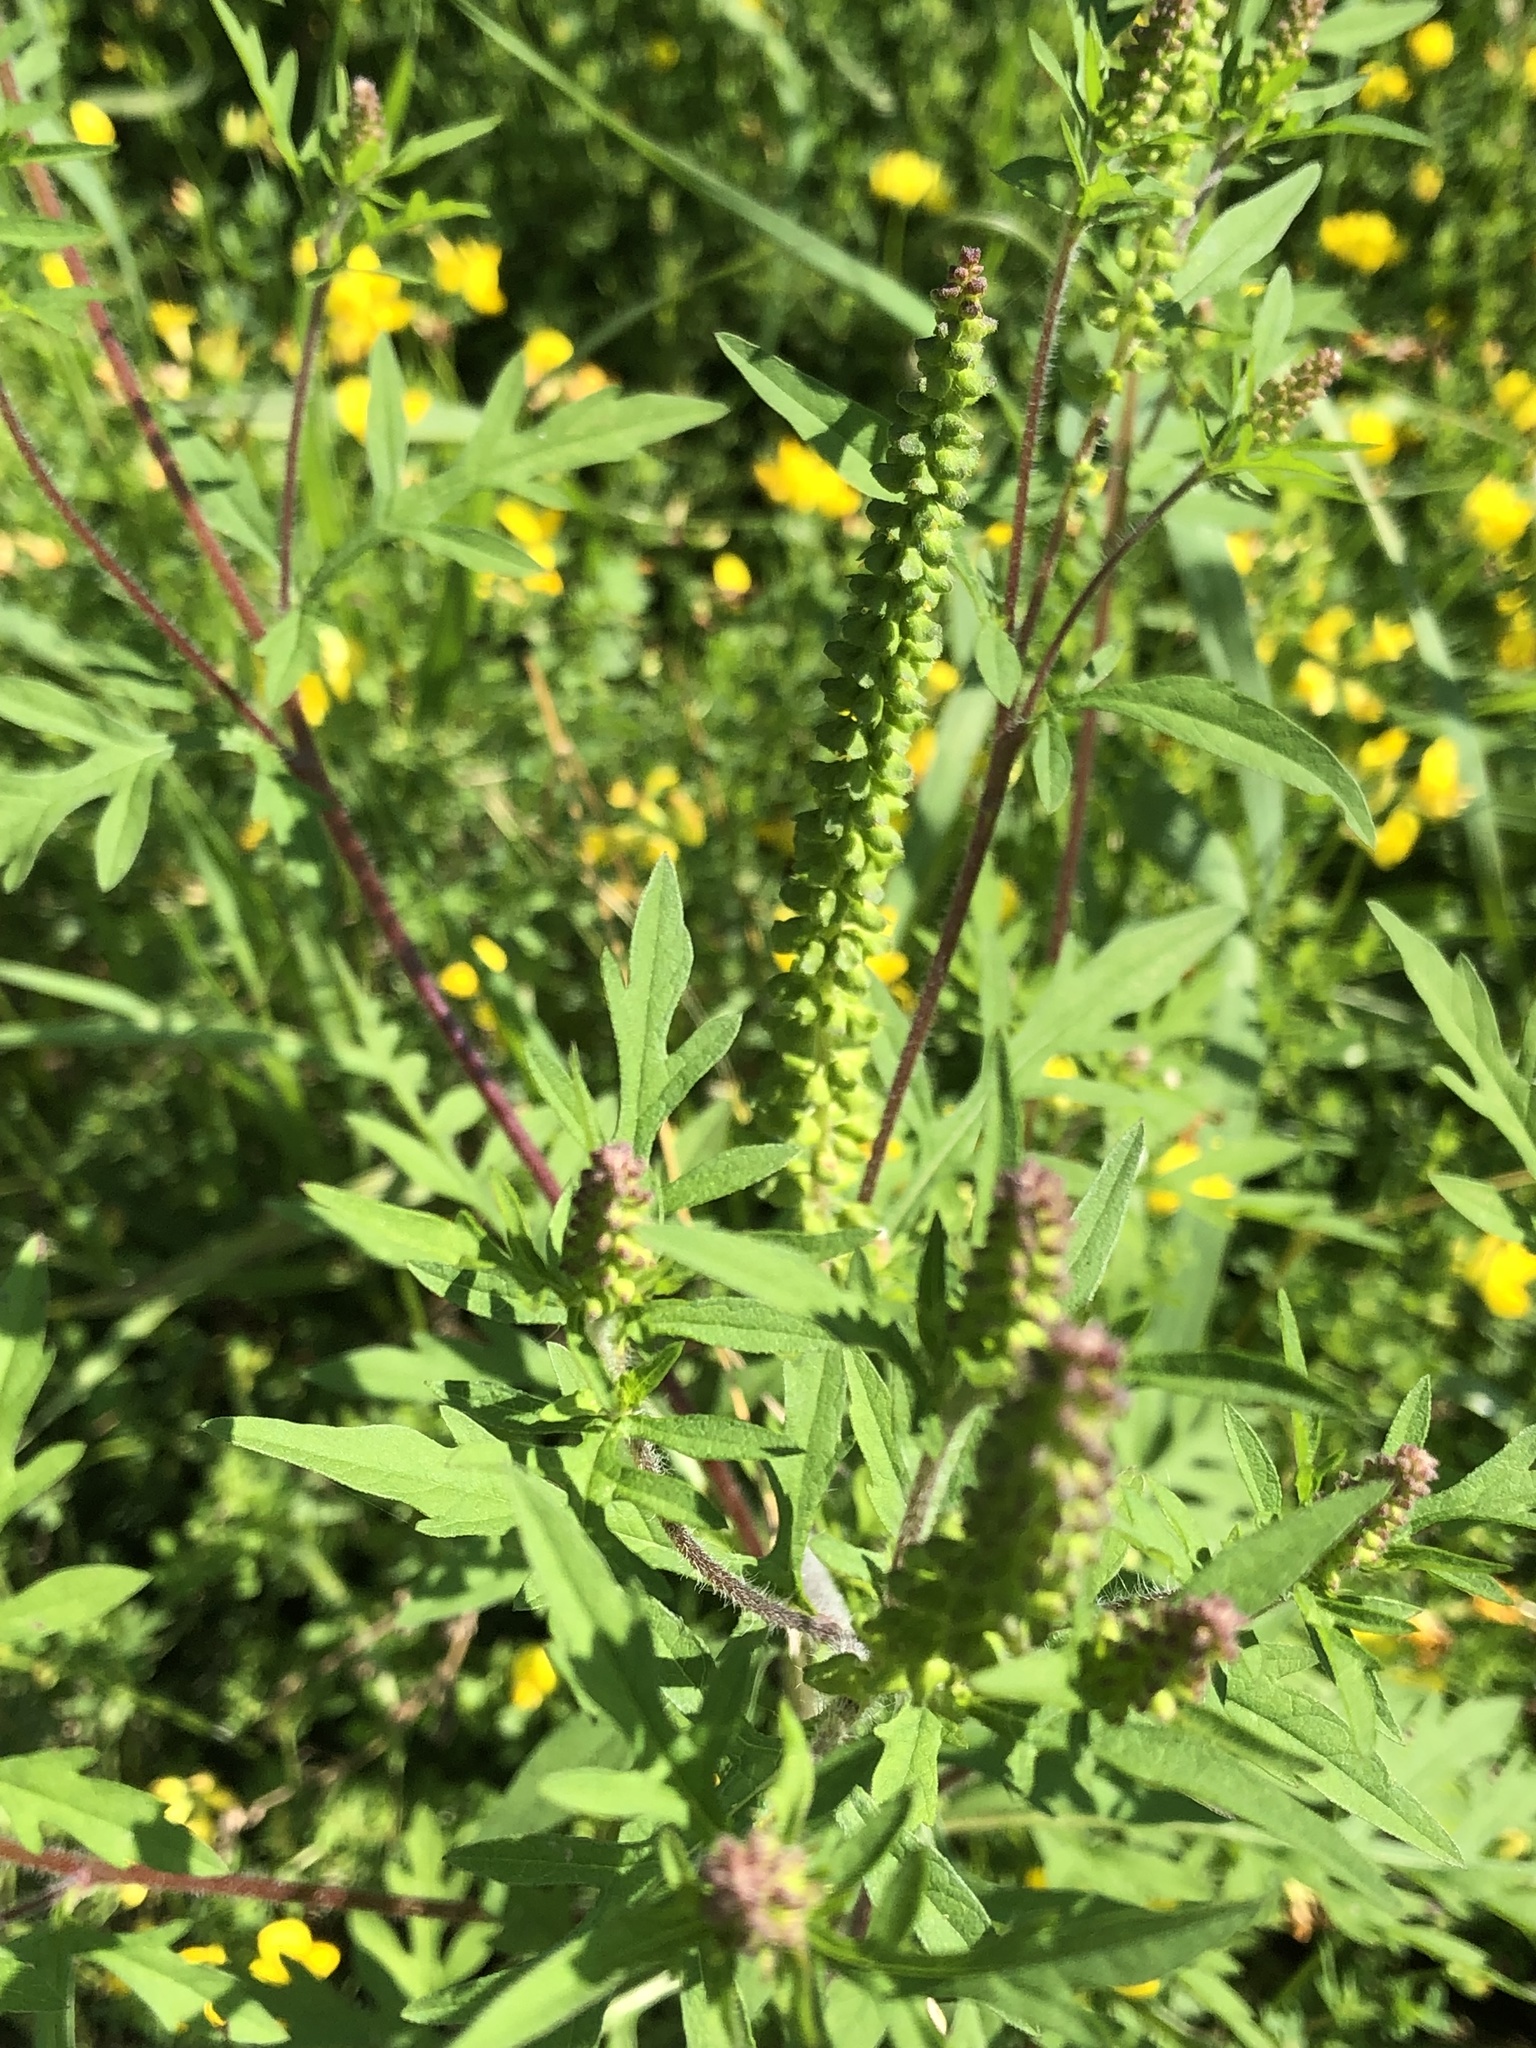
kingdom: Plantae
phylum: Tracheophyta
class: Magnoliopsida
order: Asterales
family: Asteraceae
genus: Ambrosia
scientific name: Ambrosia artemisiifolia
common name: Annual ragweed
